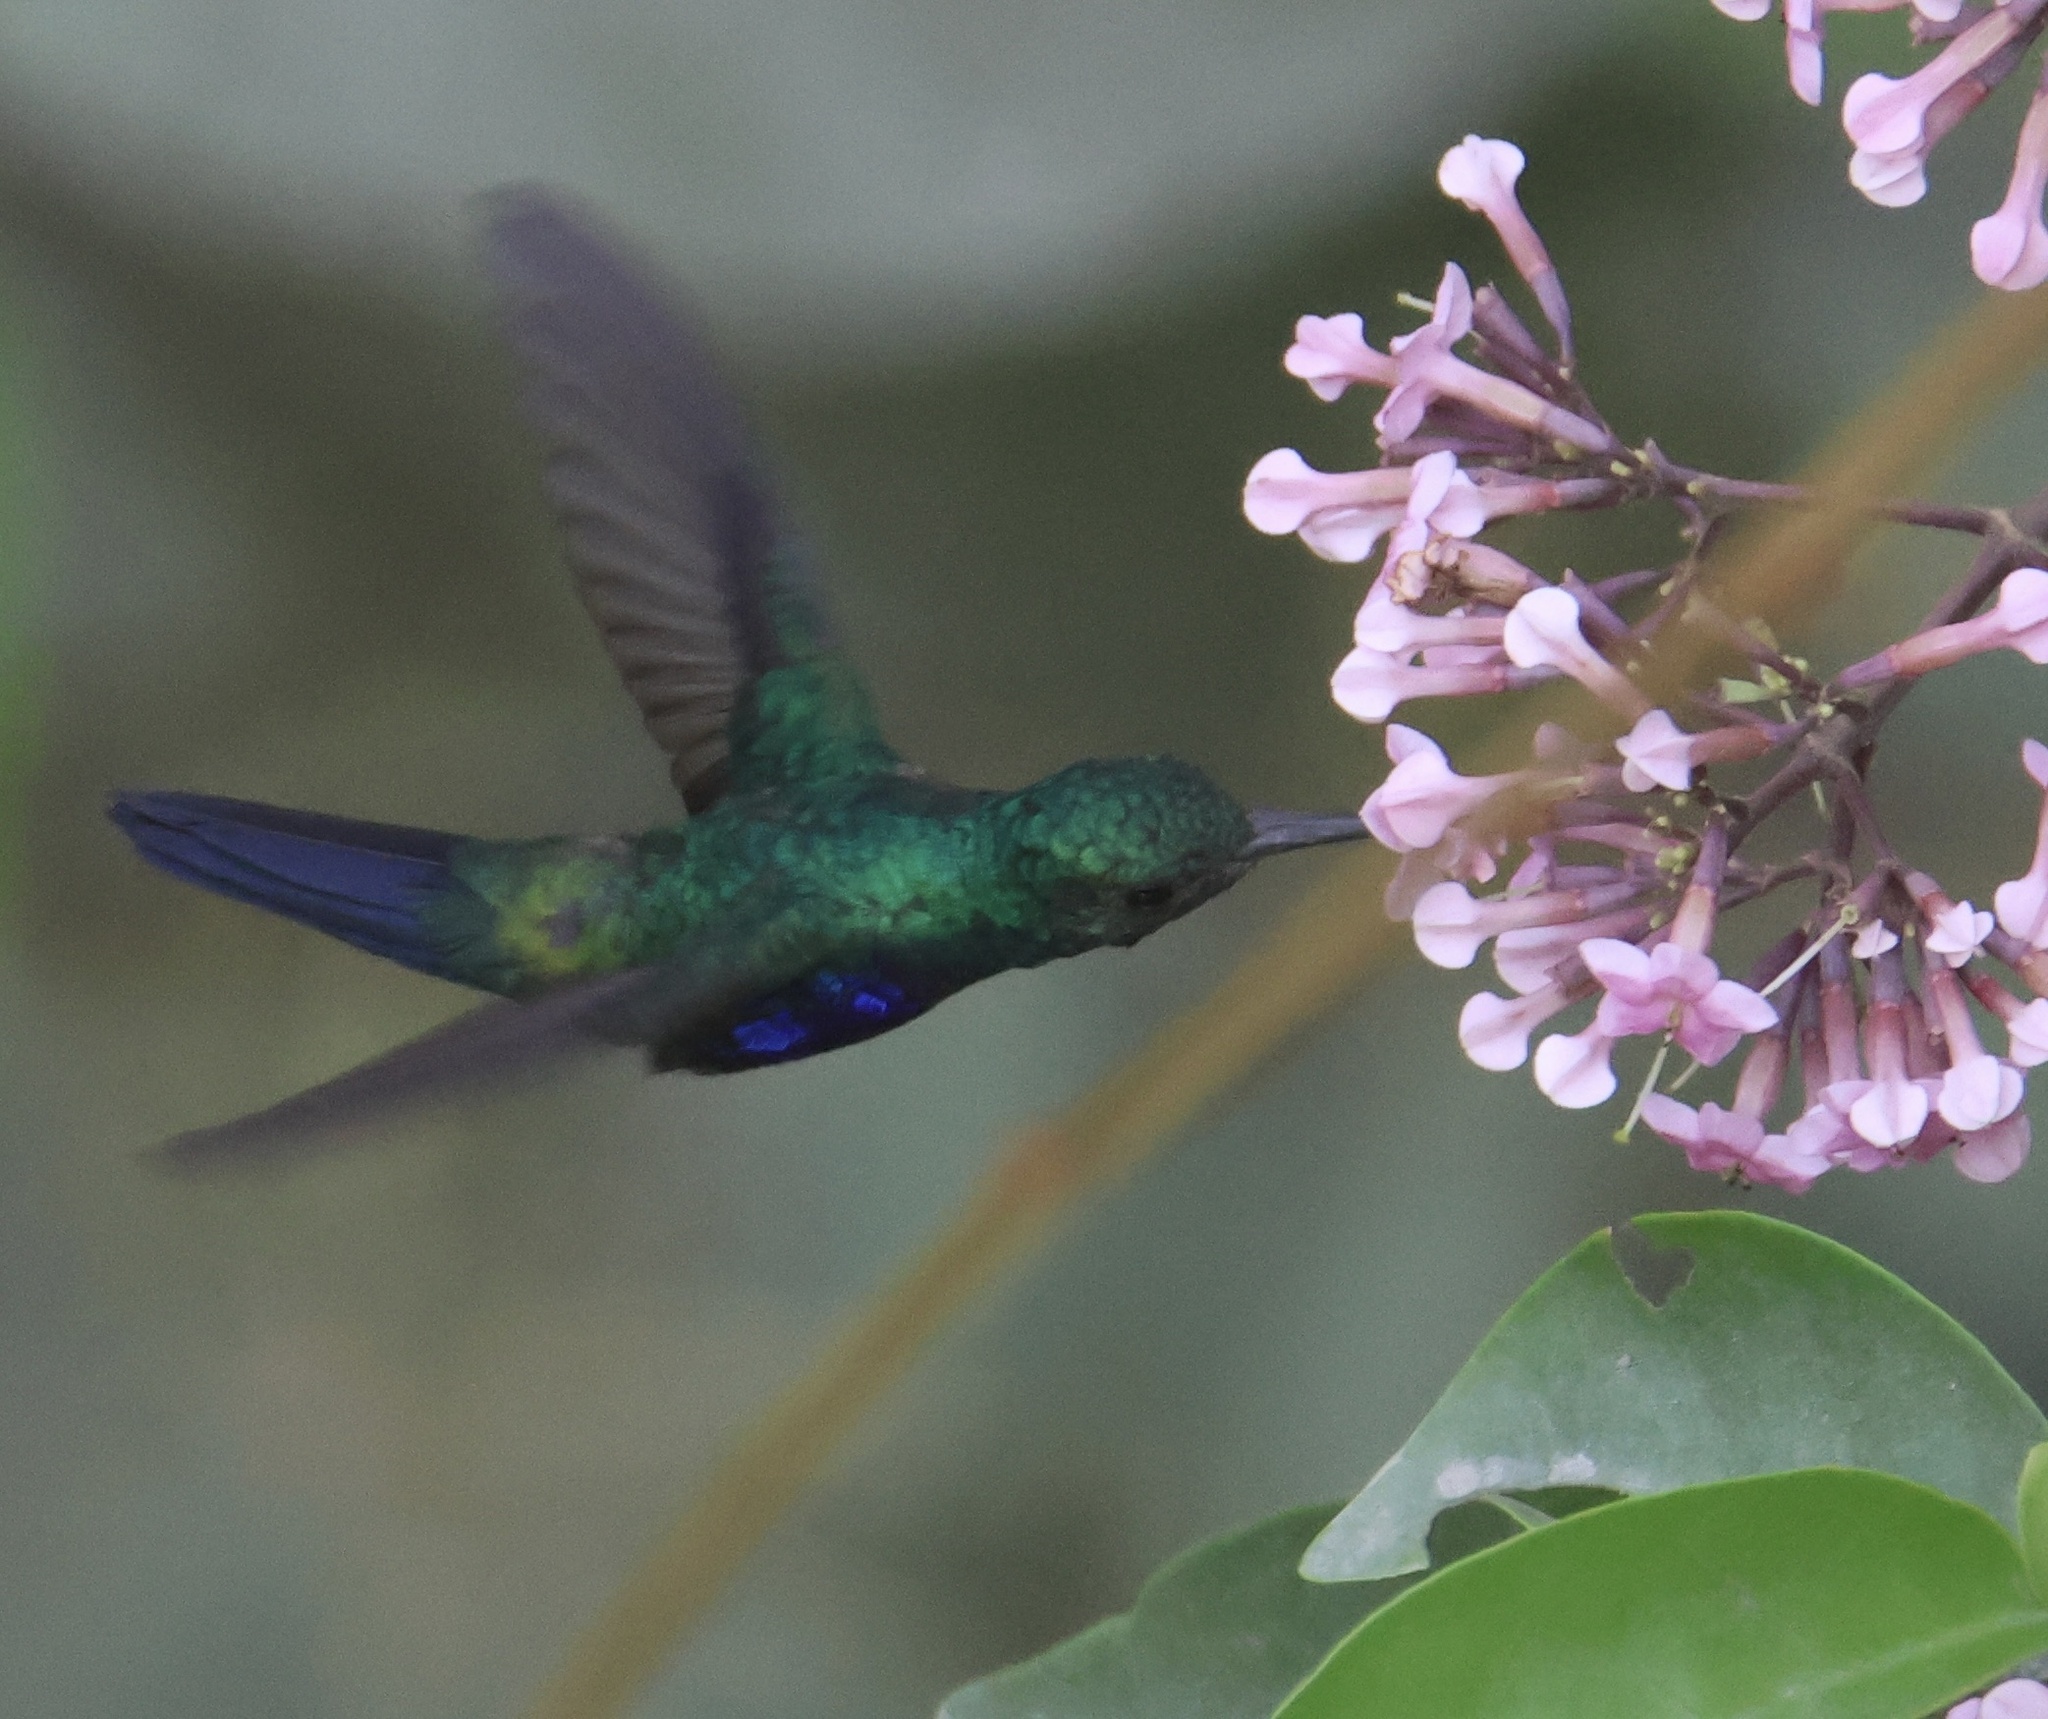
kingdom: Animalia
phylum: Chordata
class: Aves
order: Apodiformes
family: Trochilidae
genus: Chlorestes
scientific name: Chlorestes julie
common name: Violet-bellied hummingbird
